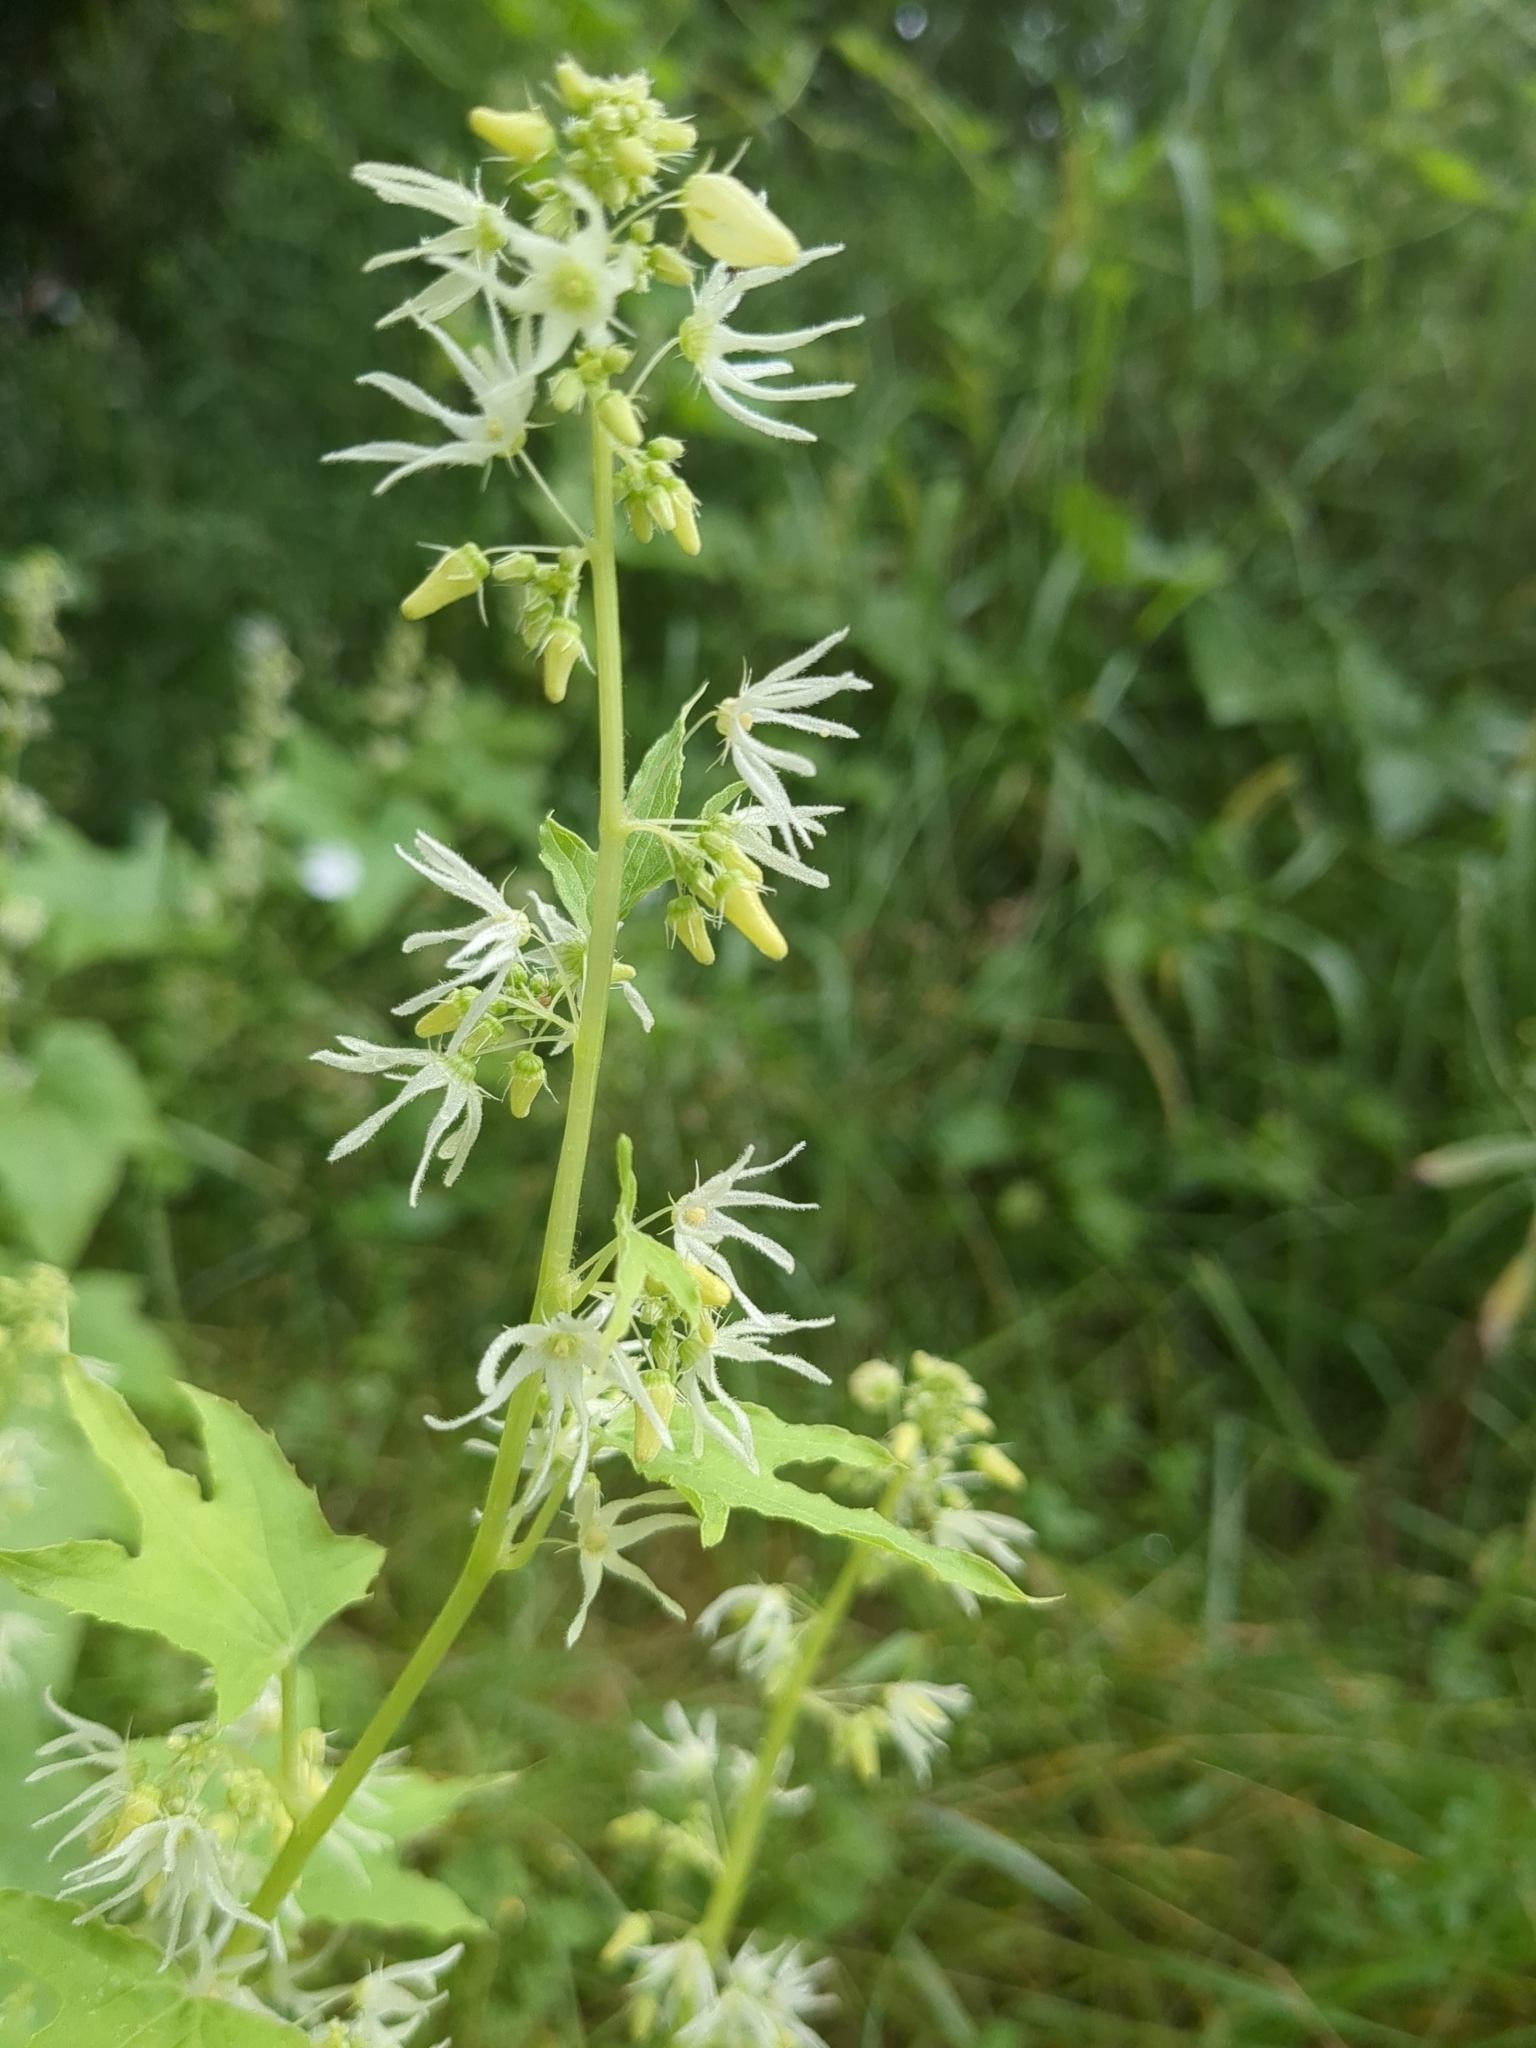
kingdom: Plantae
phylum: Tracheophyta
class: Magnoliopsida
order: Cucurbitales
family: Cucurbitaceae
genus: Echinocystis
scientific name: Echinocystis lobata
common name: Wild cucumber
